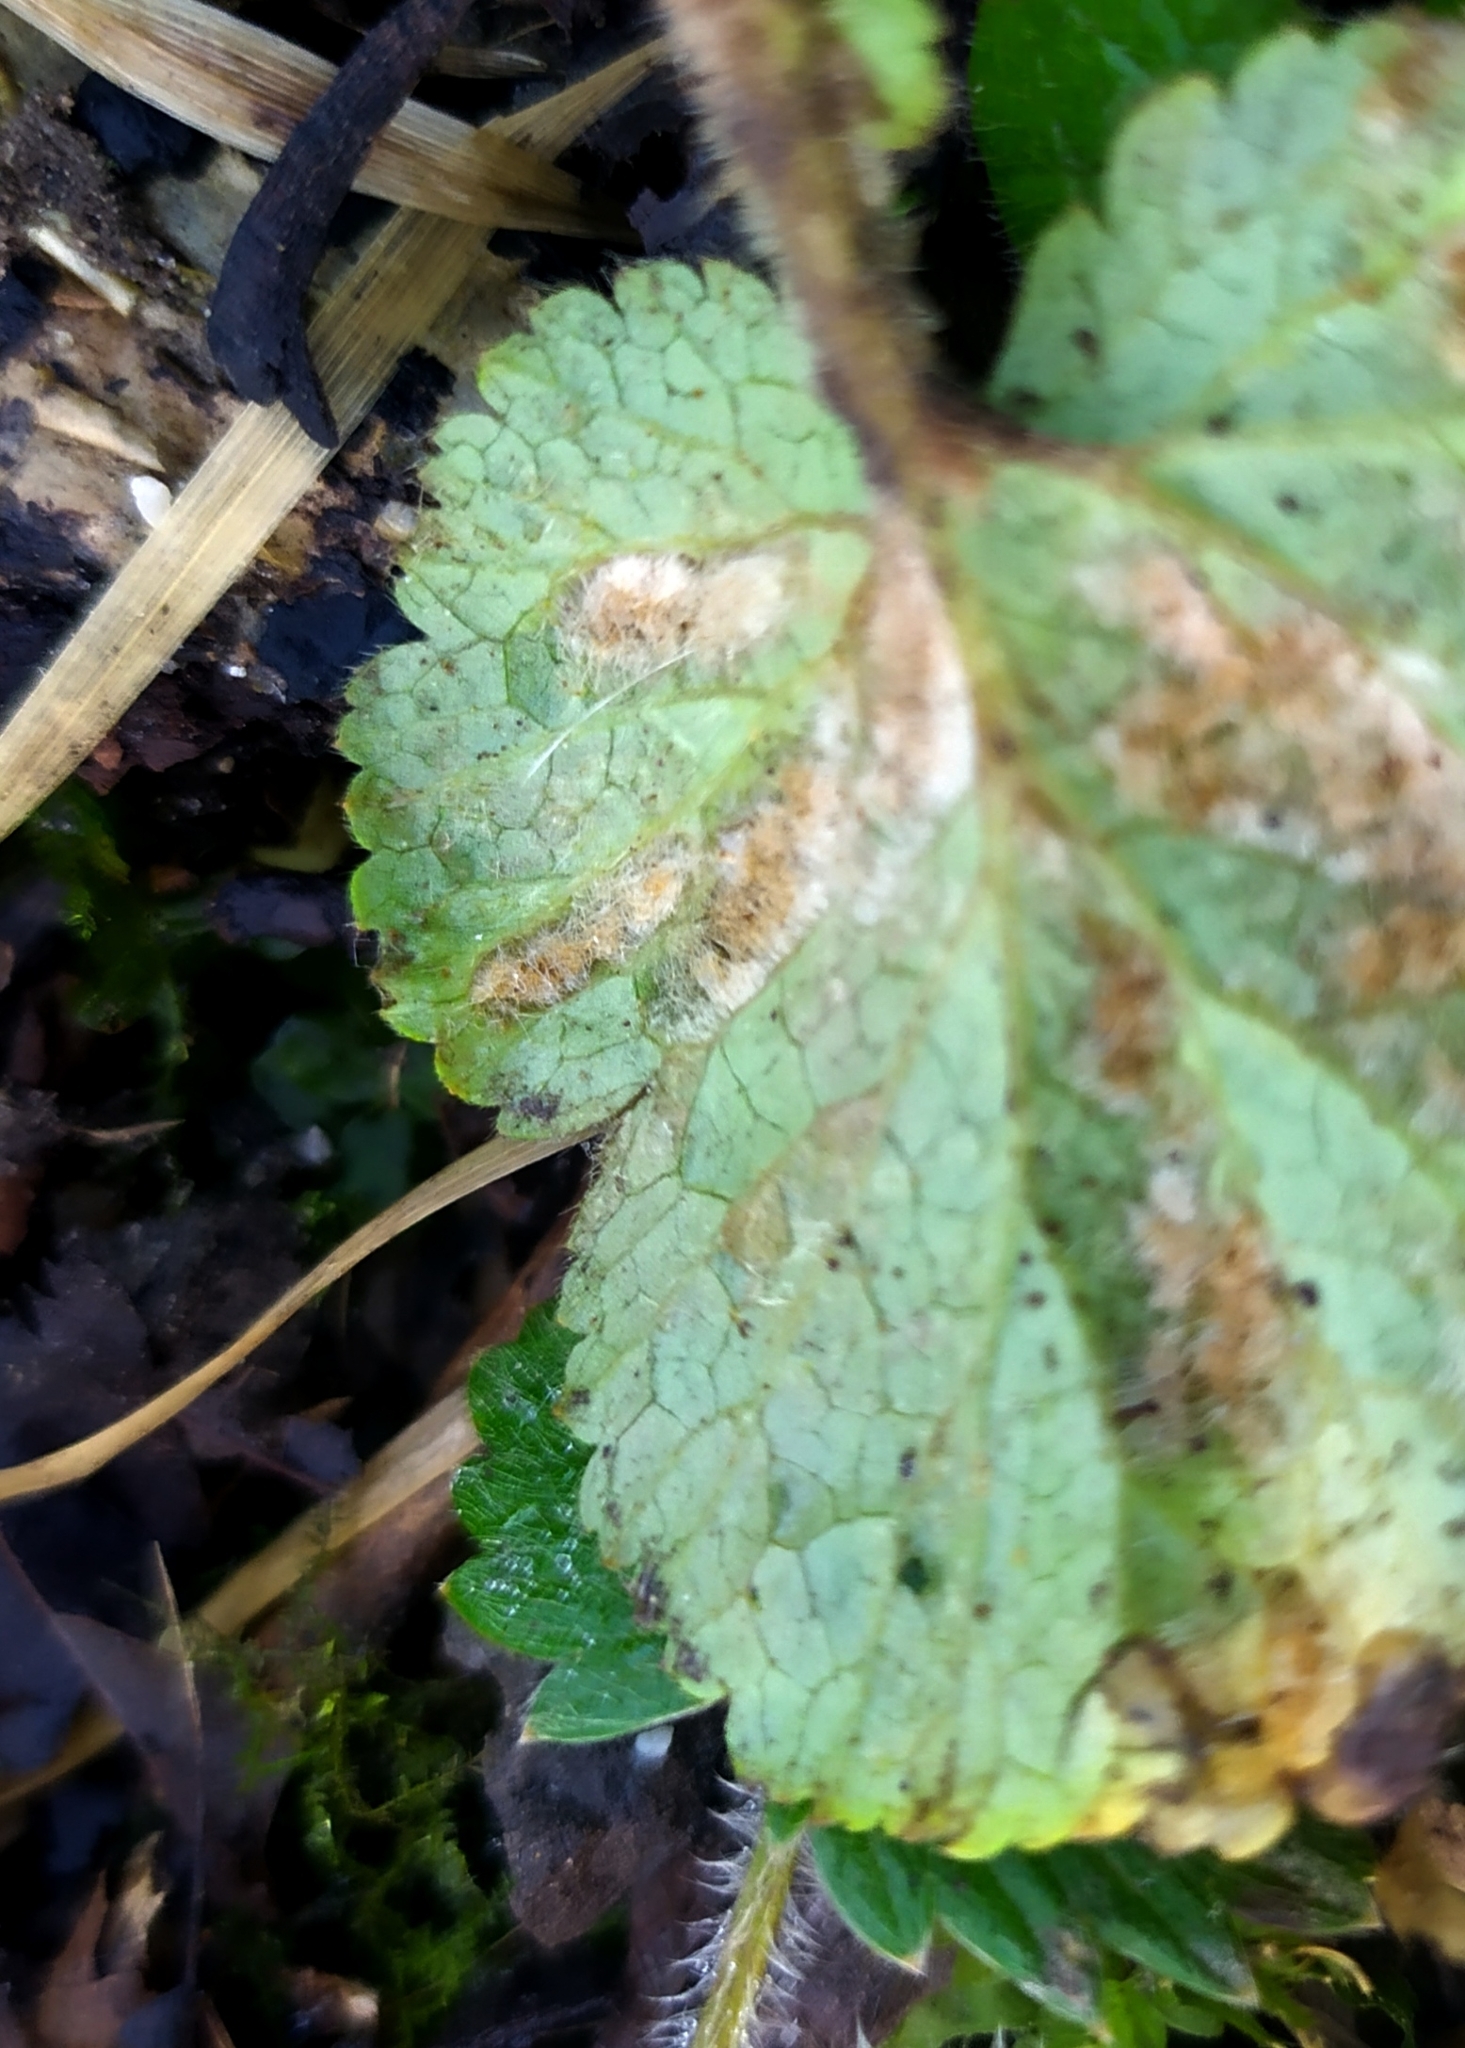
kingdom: Animalia
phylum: Arthropoda
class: Arachnida
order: Trombidiformes
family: Eriophyidae
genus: Cecidophyes
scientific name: Cecidophyes nudus
